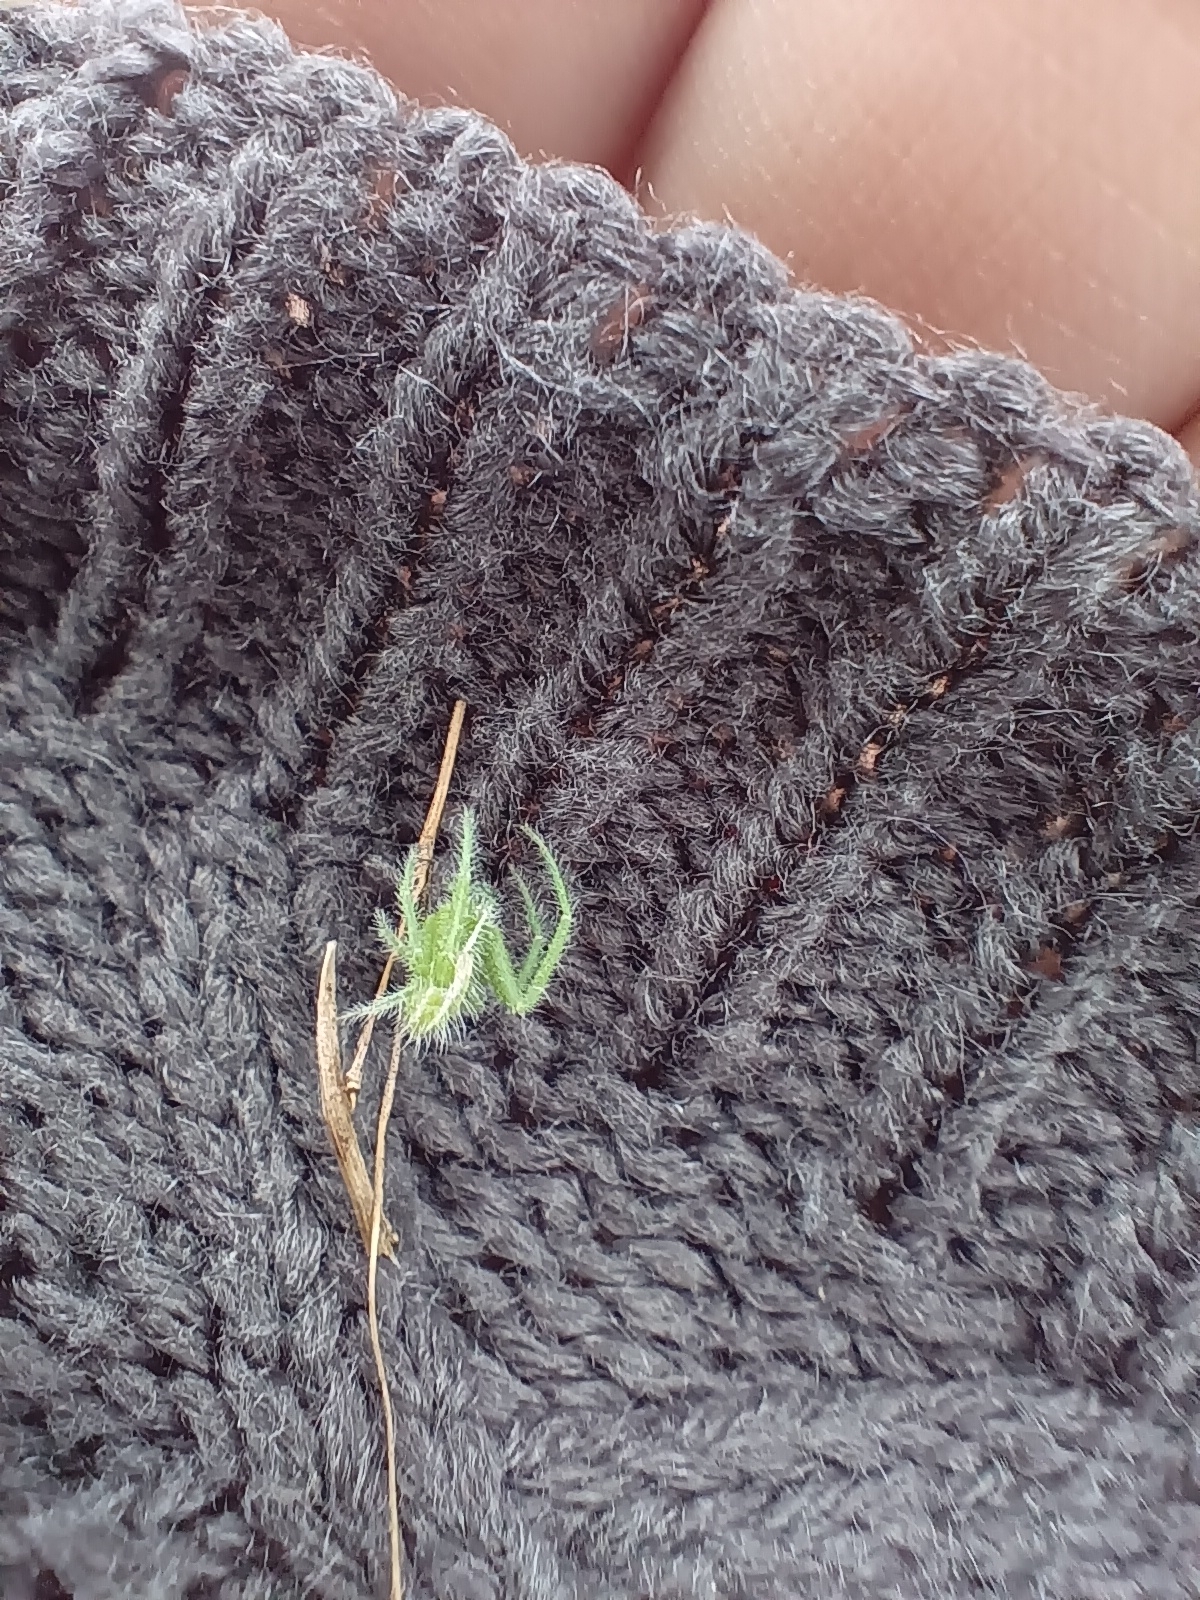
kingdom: Animalia
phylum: Arthropoda
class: Arachnida
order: Araneae
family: Thomisidae
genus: Heriaeus
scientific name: Heriaeus oblongus
